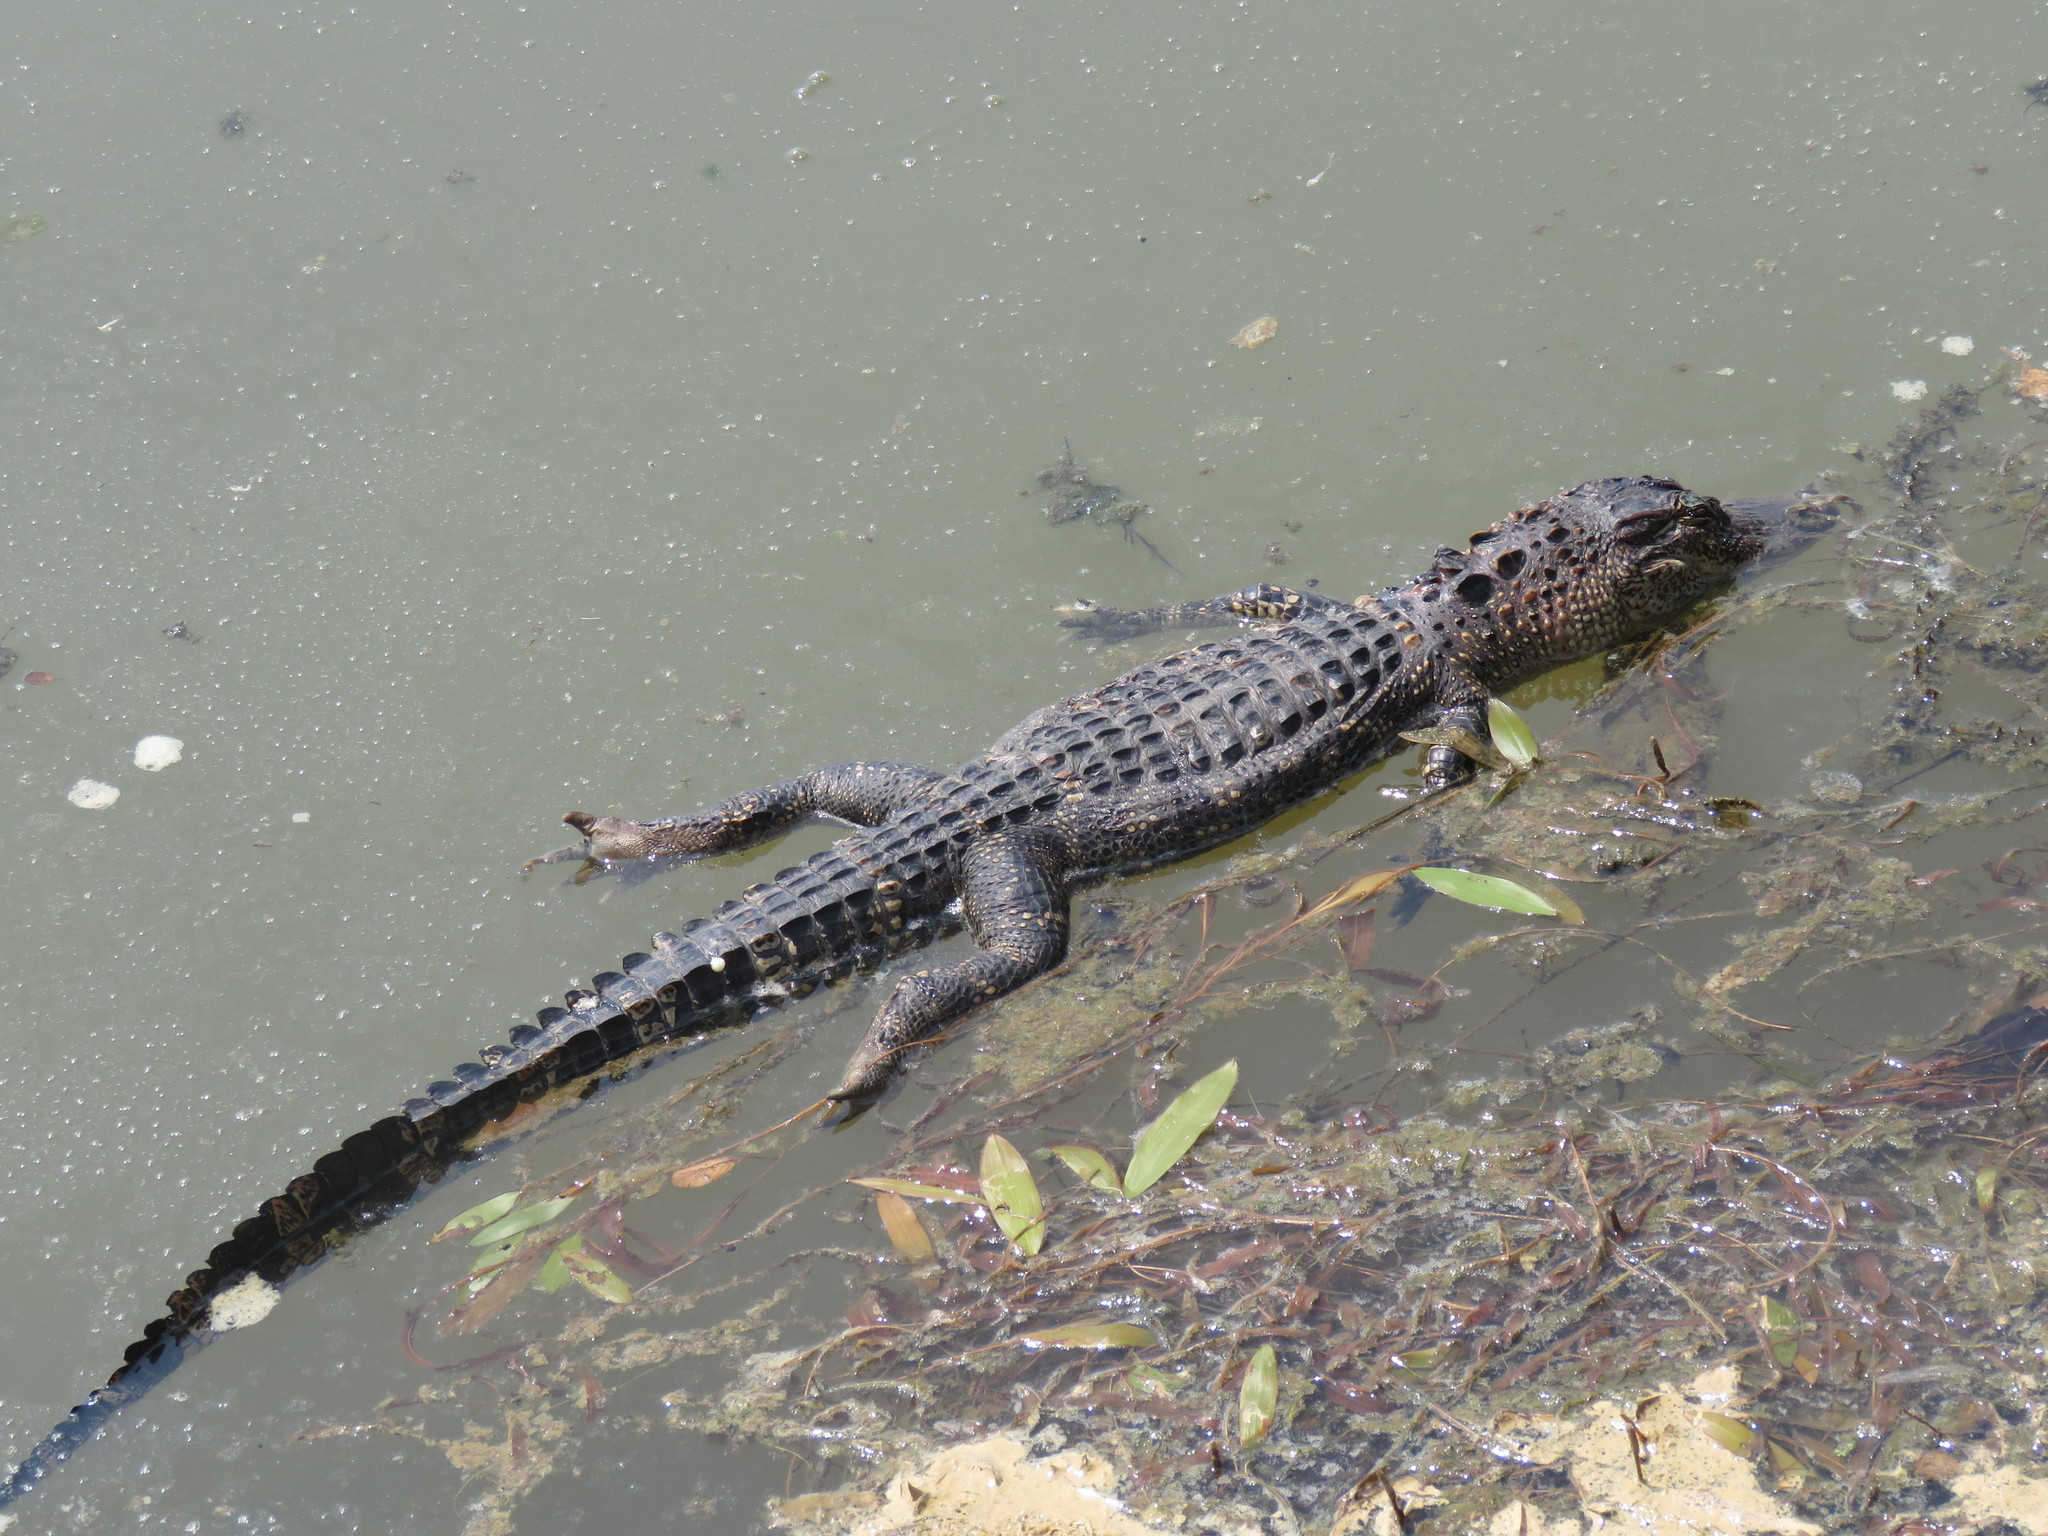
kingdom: Animalia
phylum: Chordata
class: Crocodylia
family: Alligatoridae
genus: Alligator
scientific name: Alligator mississippiensis
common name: American alligator
